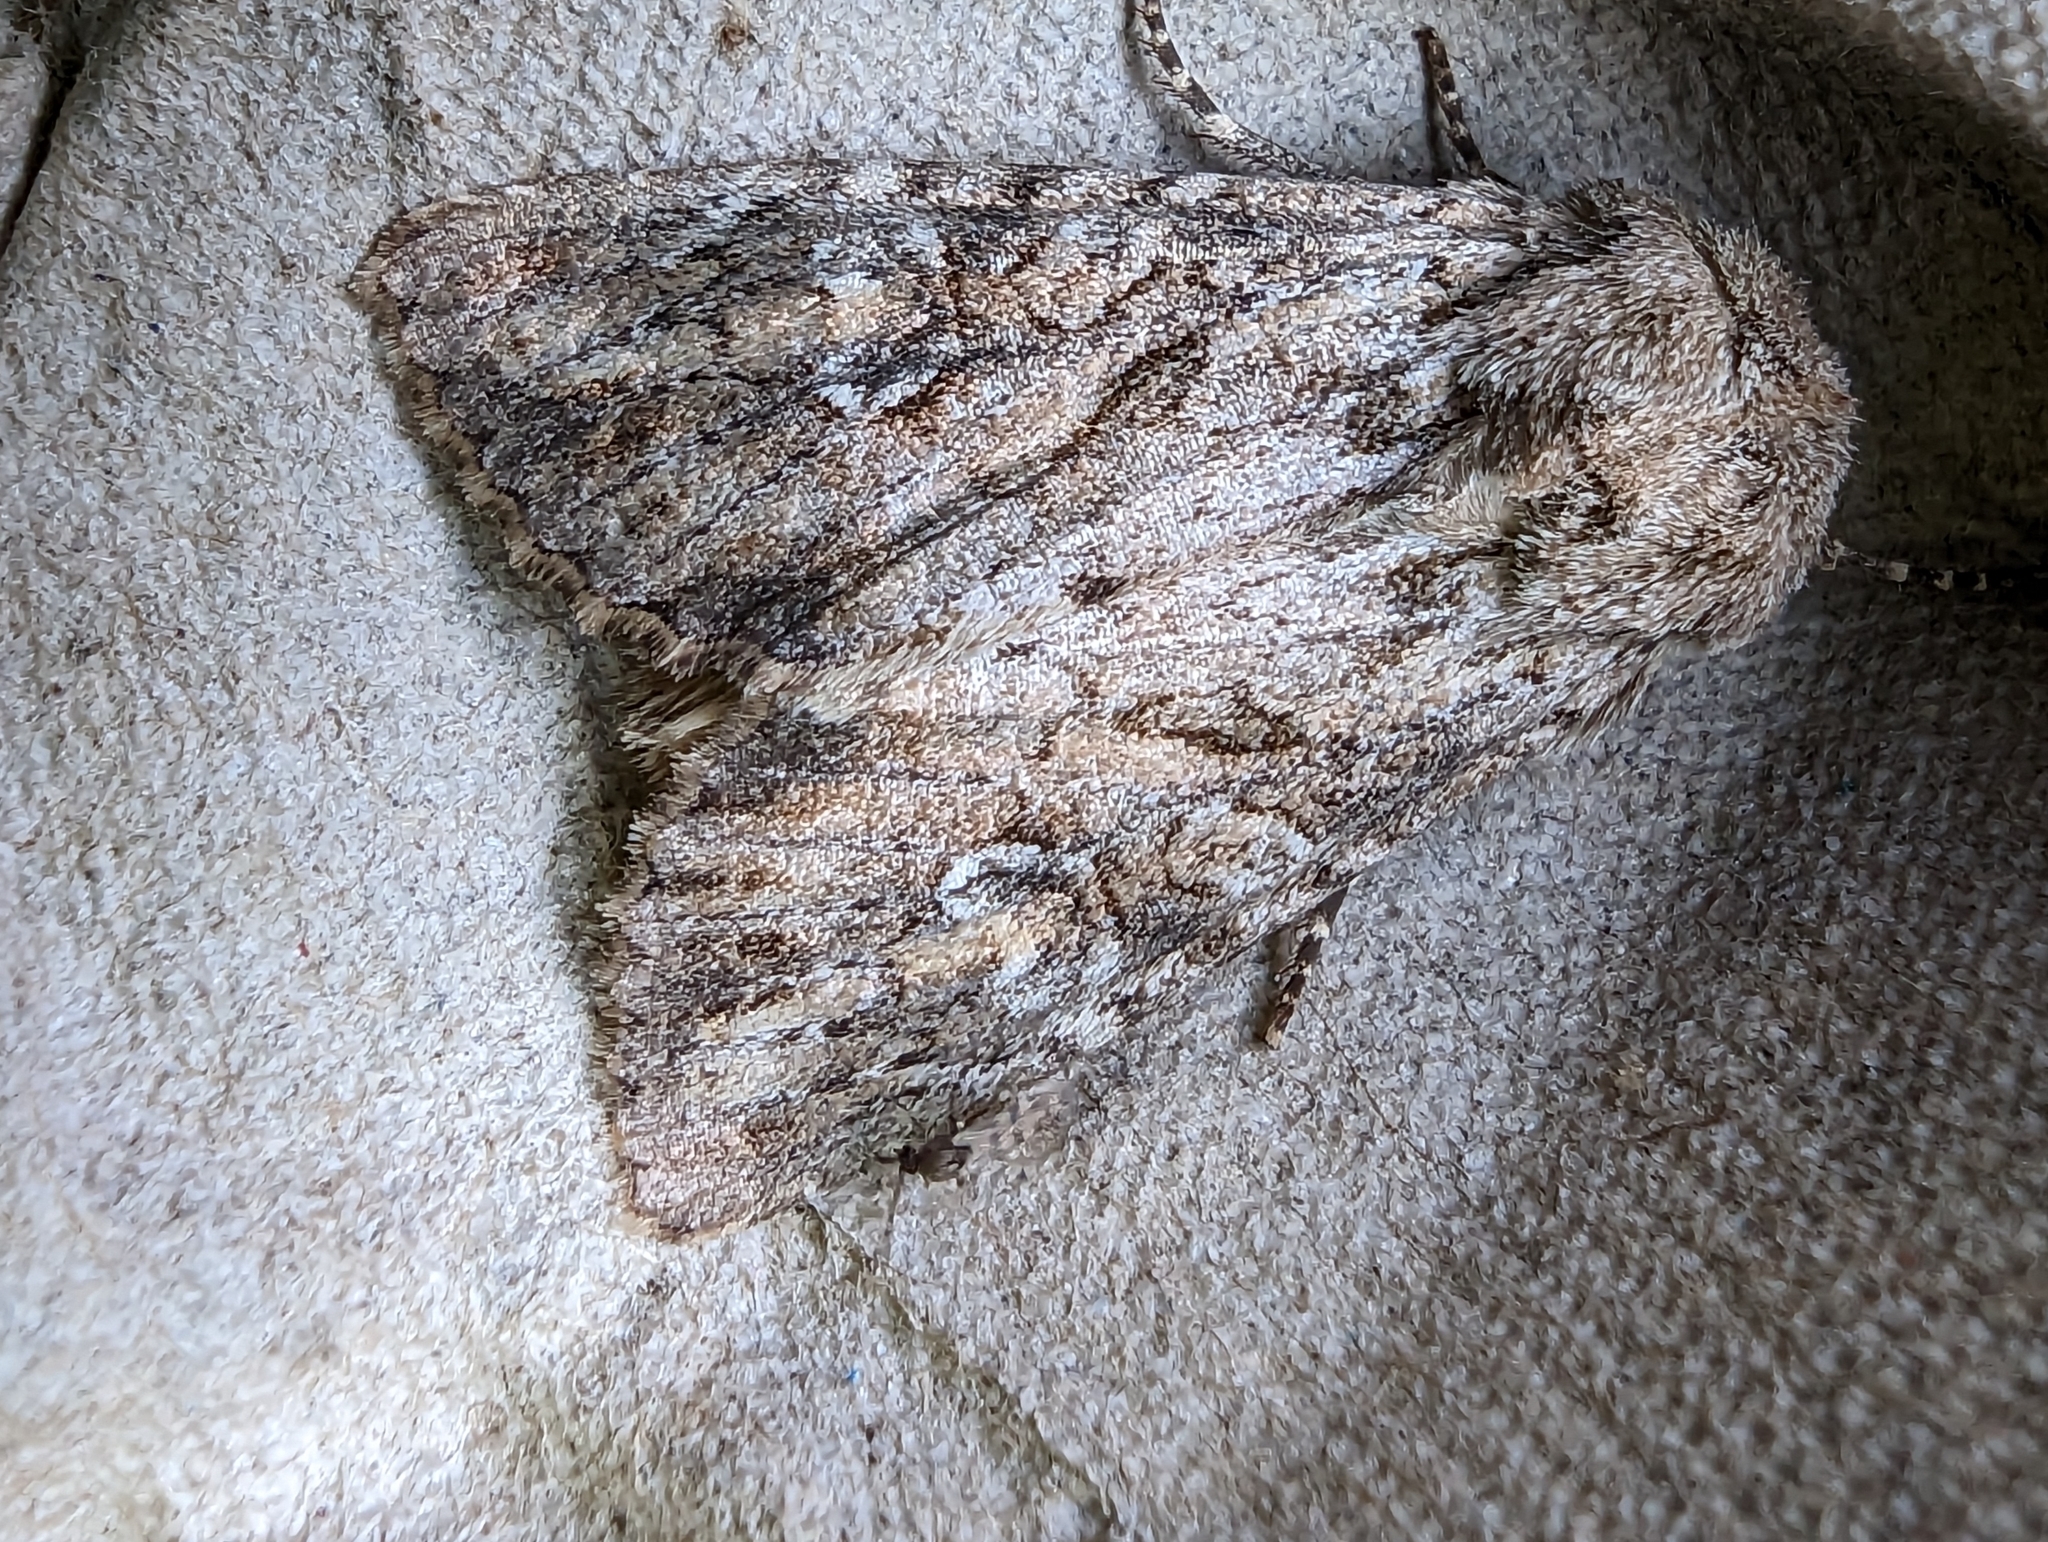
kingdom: Animalia
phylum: Arthropoda
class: Insecta
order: Lepidoptera
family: Noctuidae
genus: Apamea
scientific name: Apamea anceps
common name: Large nutmeg
